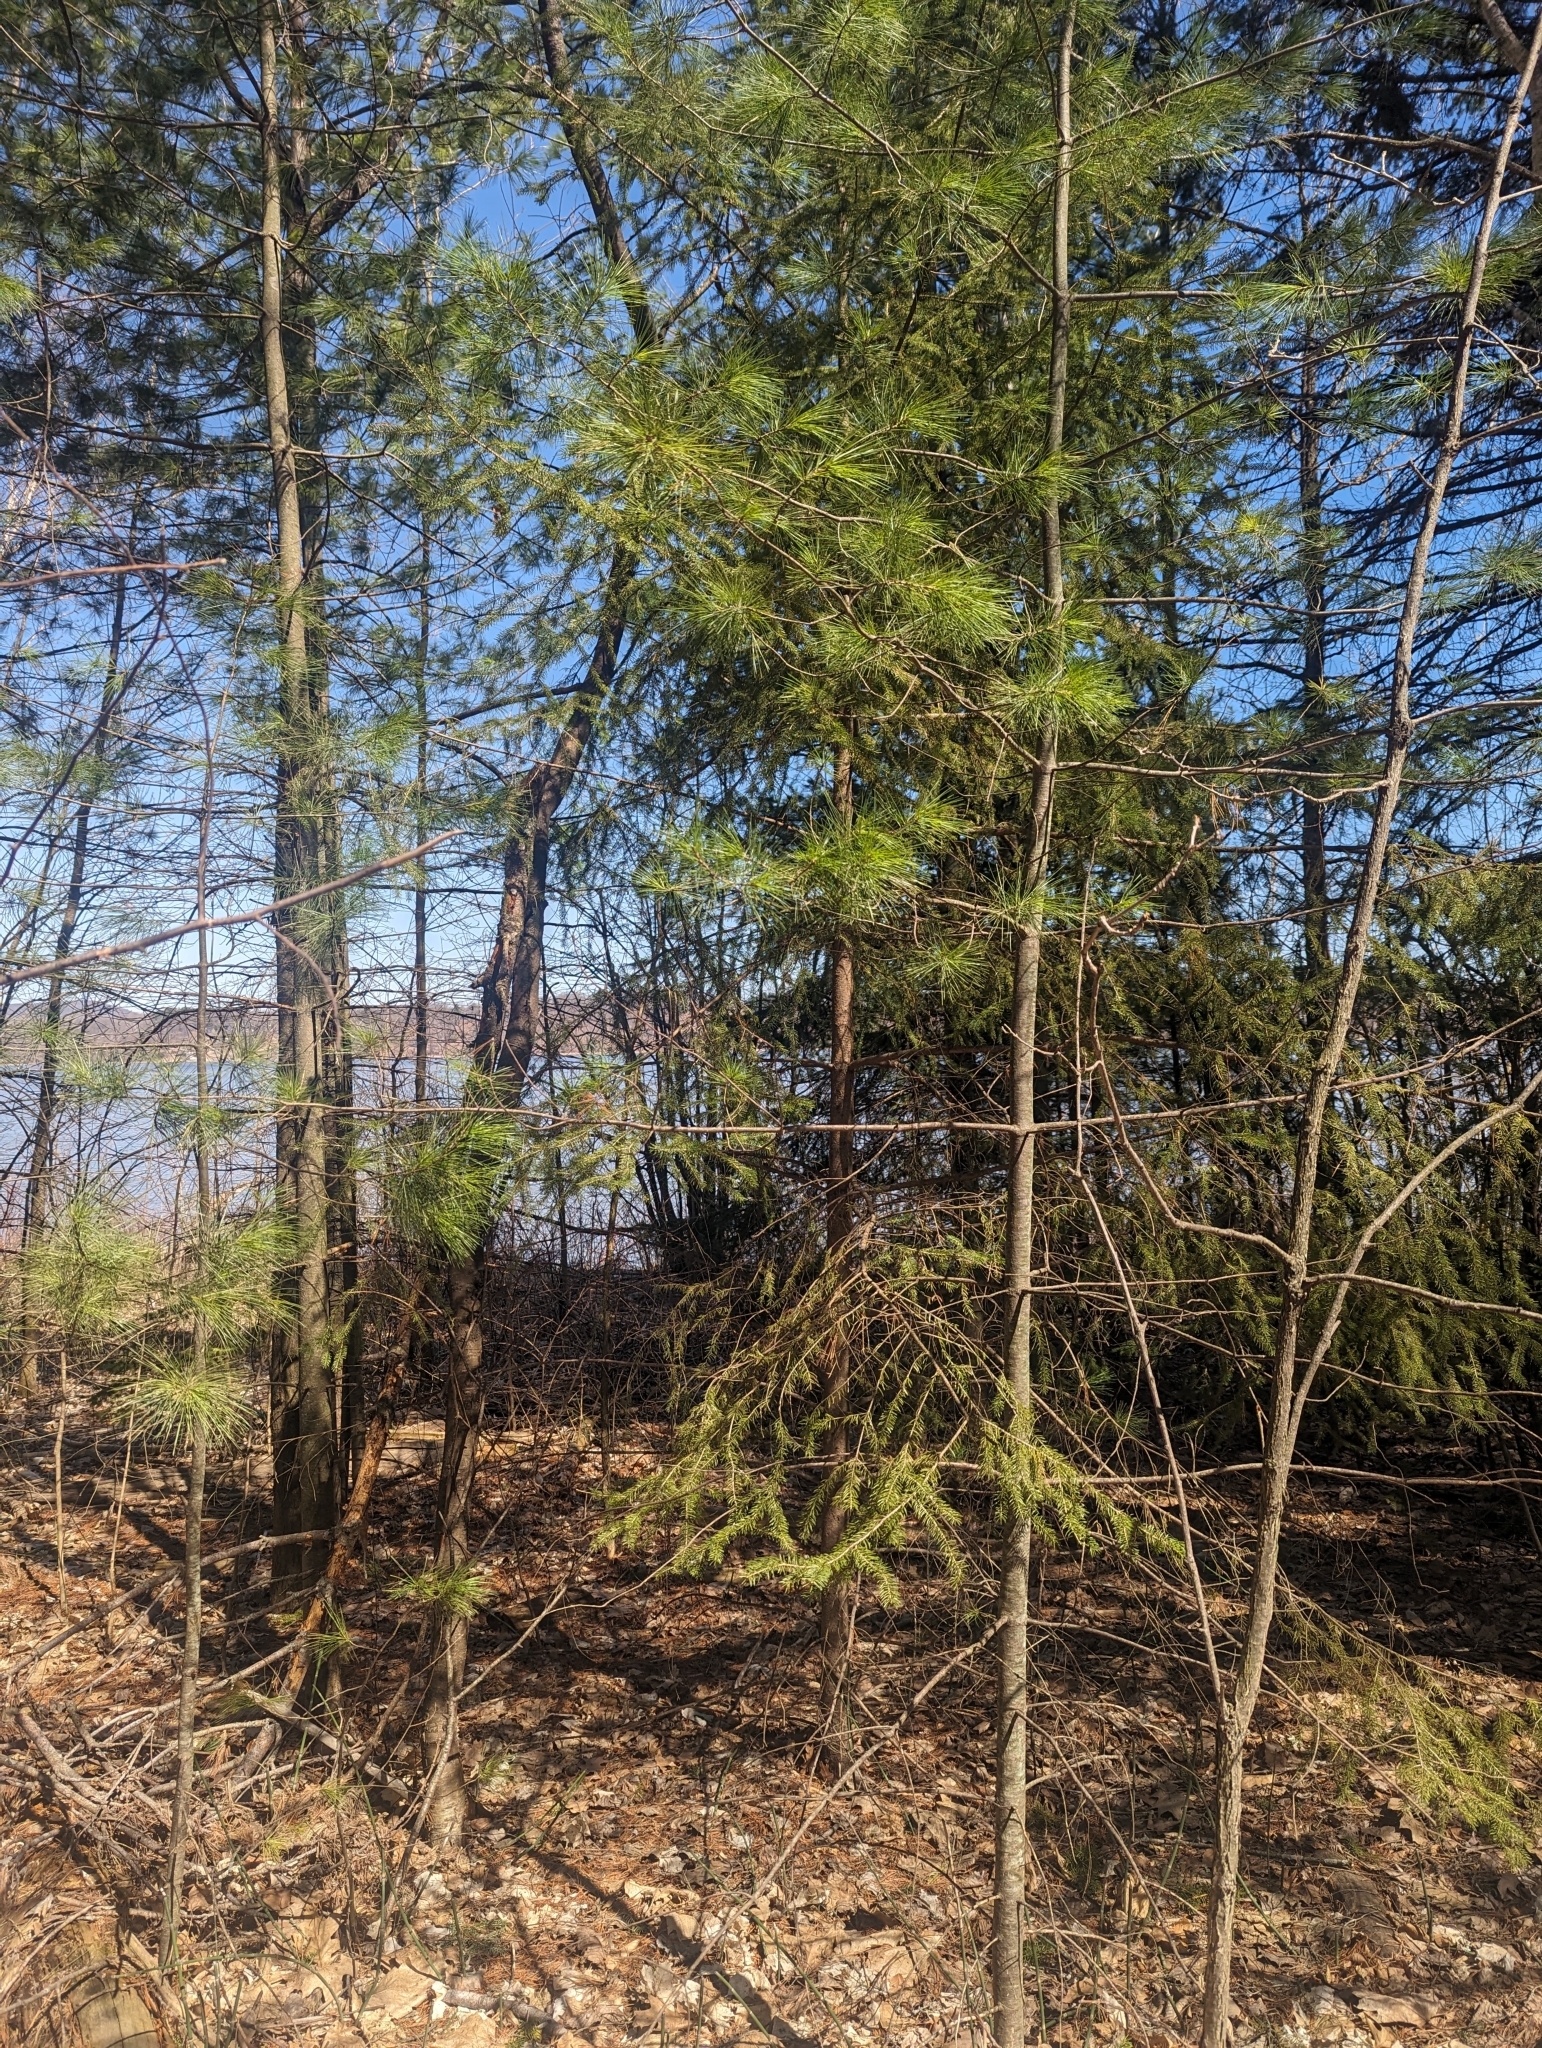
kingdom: Plantae
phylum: Tracheophyta
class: Pinopsida
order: Pinales
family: Pinaceae
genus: Picea
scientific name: Picea glauca
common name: White spruce
